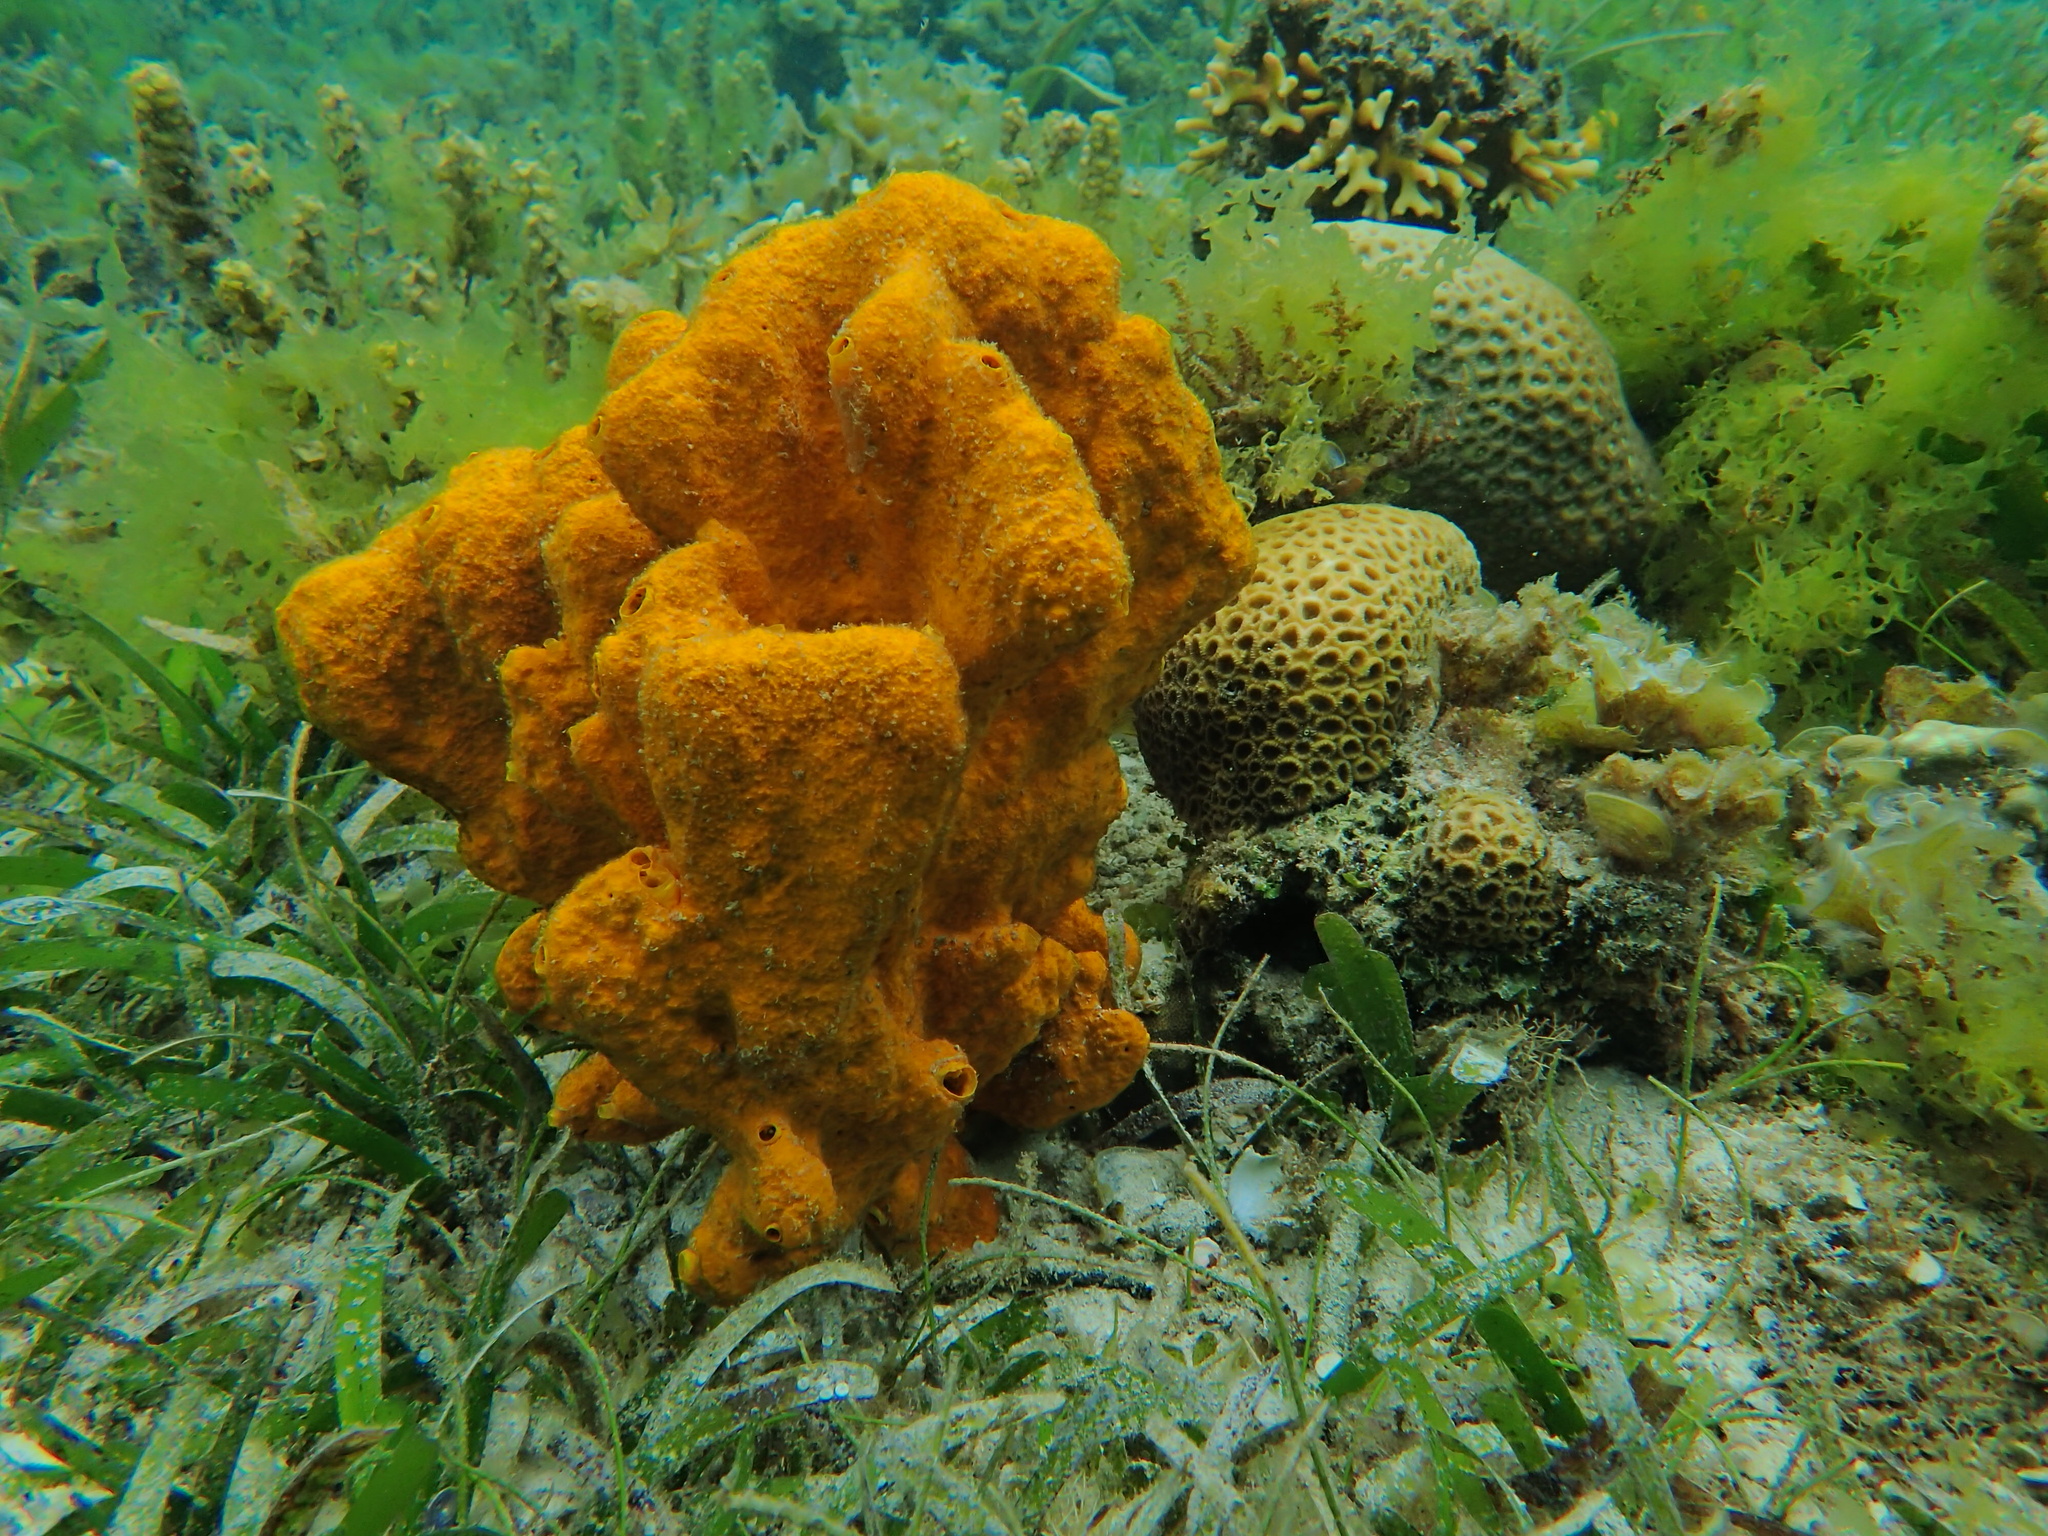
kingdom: Animalia
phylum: Porifera
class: Demospongiae
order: Scopalinida
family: Scopalinidae
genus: Stylissa
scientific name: Stylissa massa
